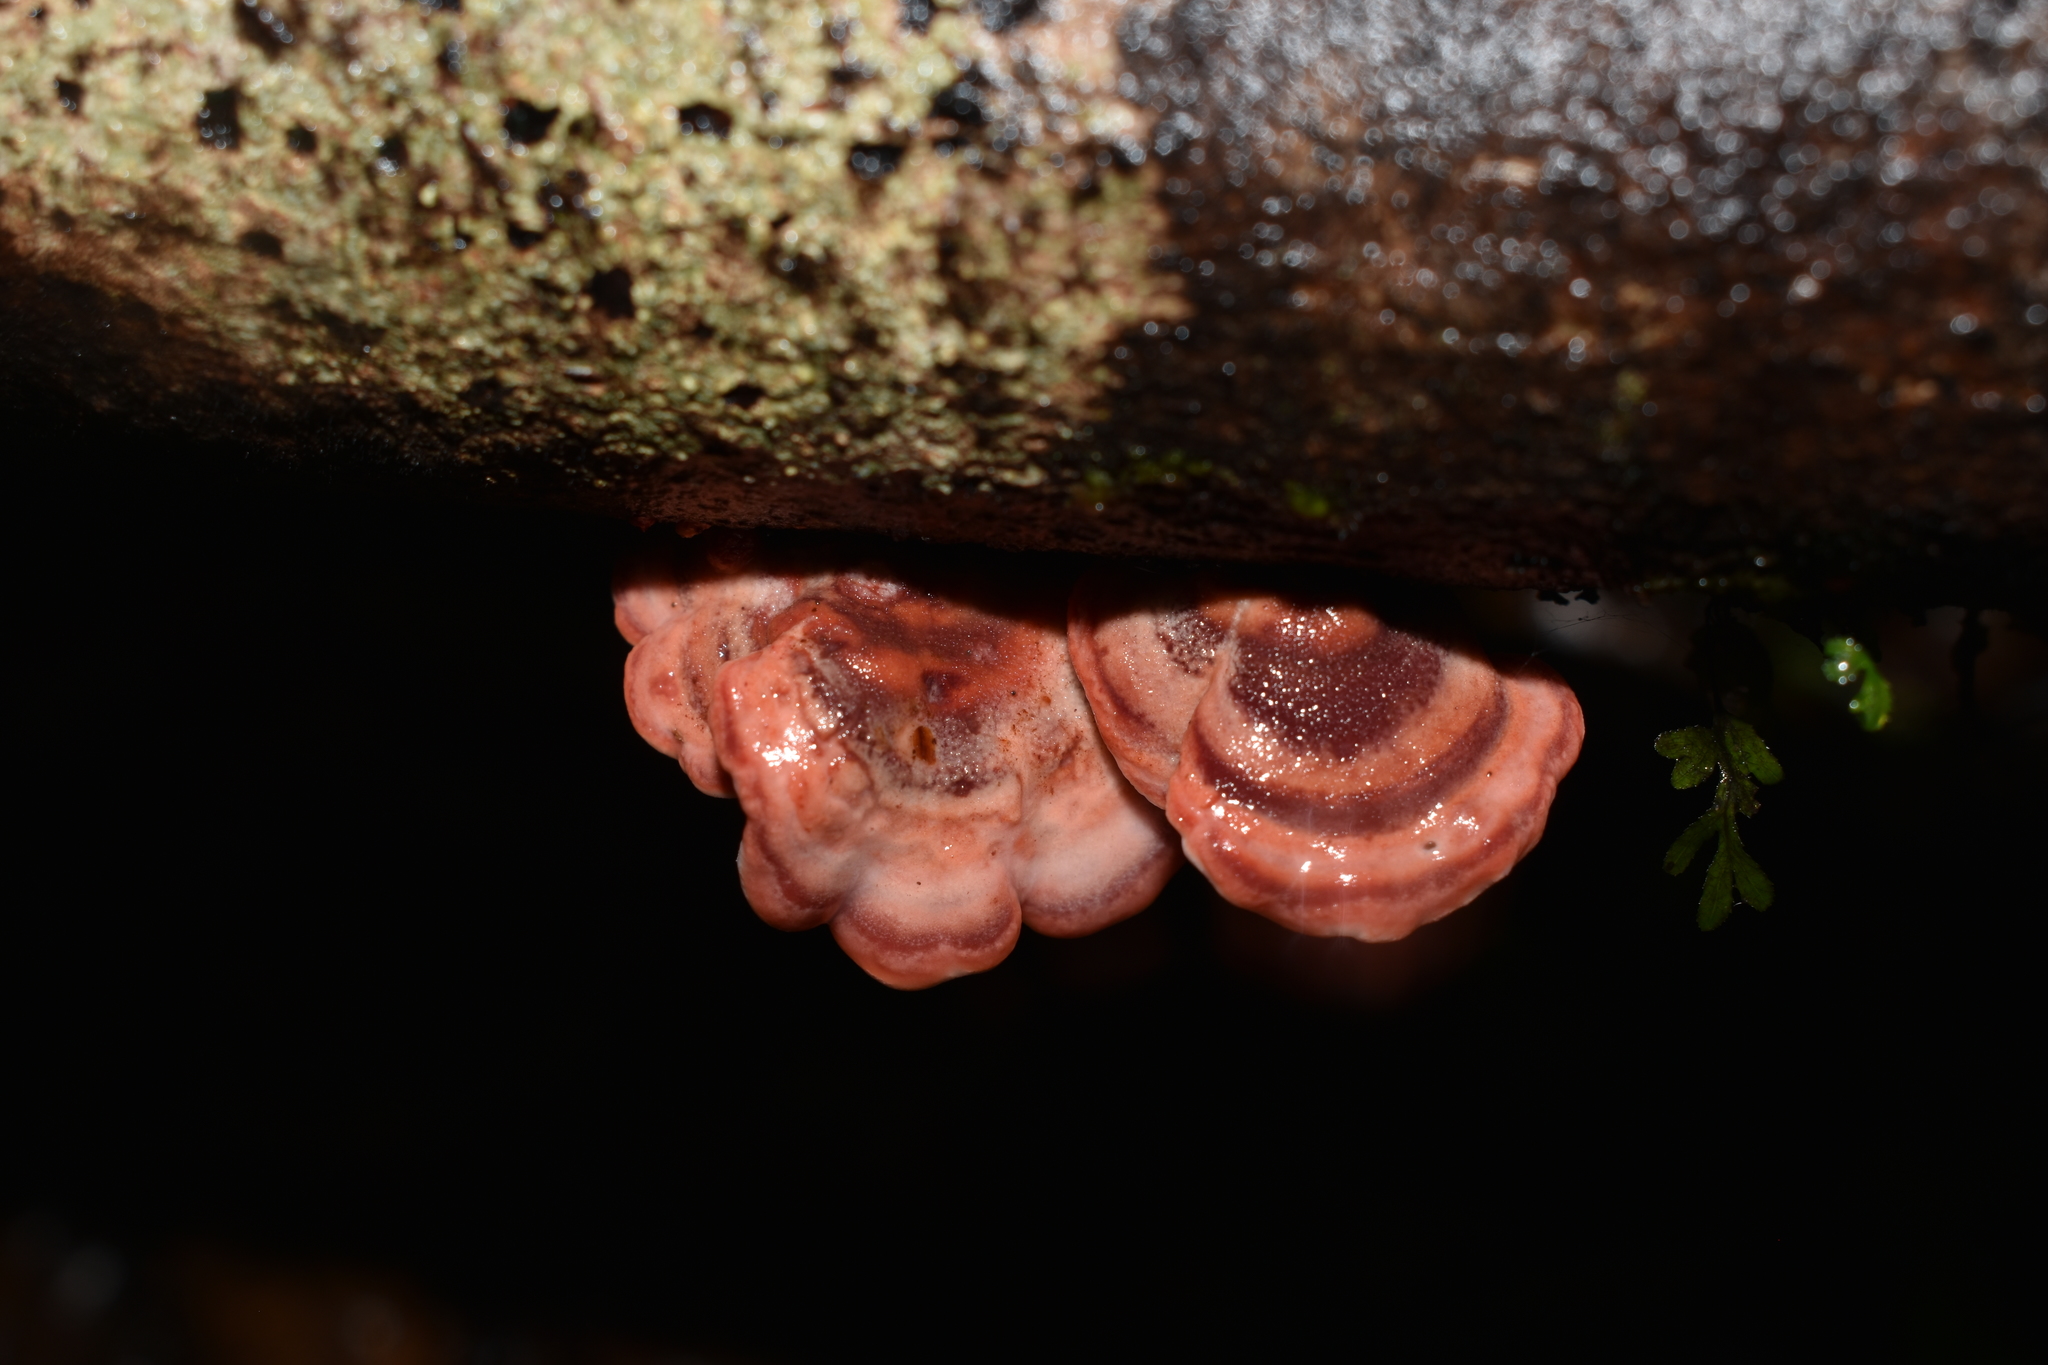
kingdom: Fungi
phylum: Basidiomycota
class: Agaricomycetes
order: Polyporales
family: Meruliaceae
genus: Phlebia
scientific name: Phlebia
